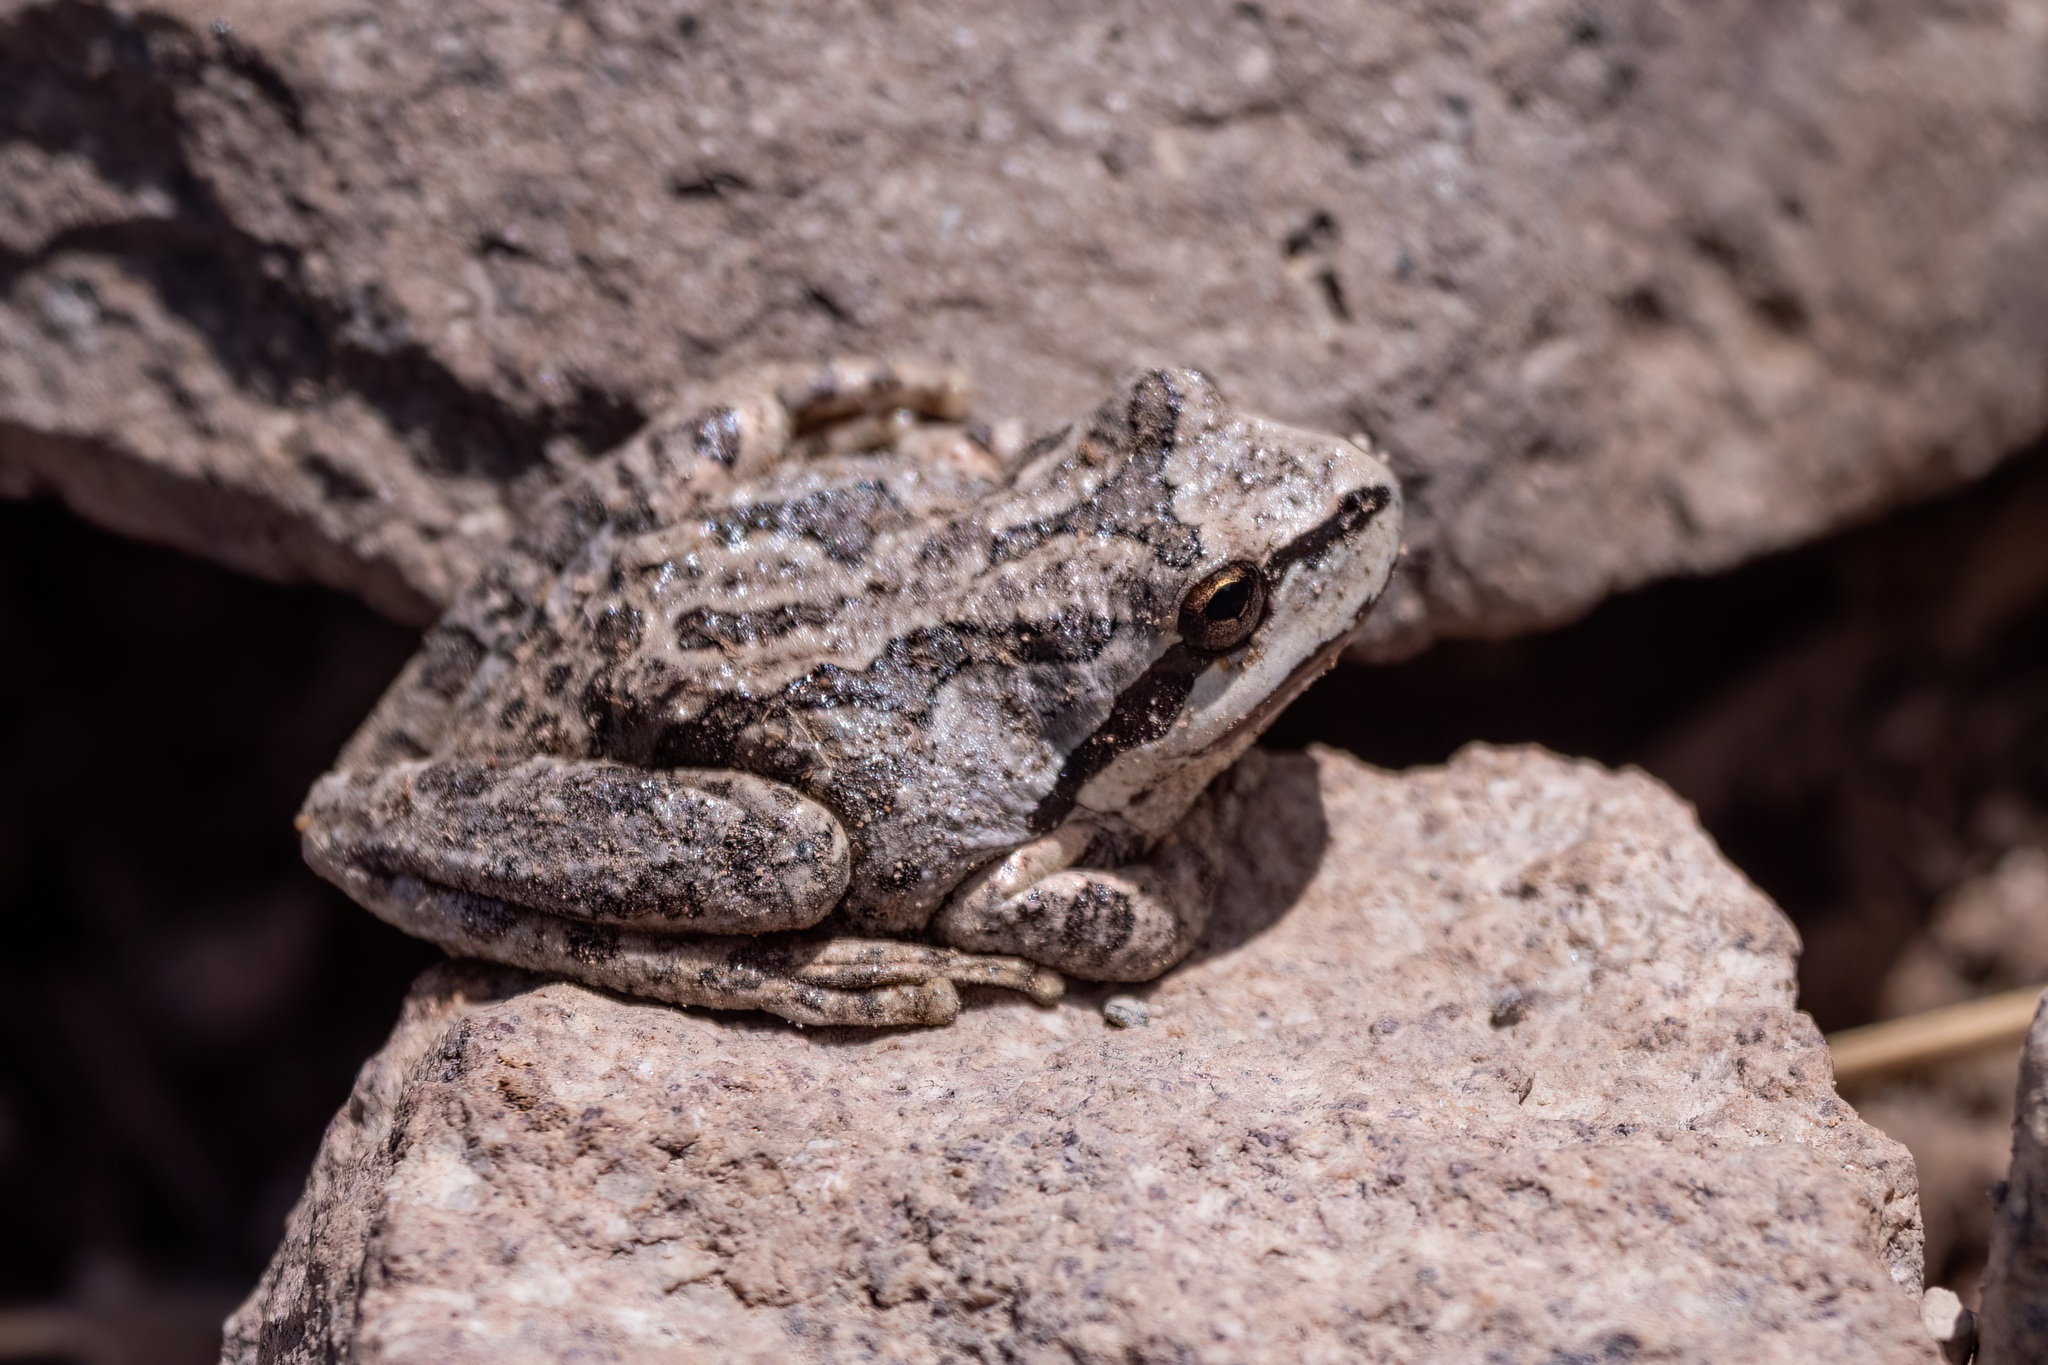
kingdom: Animalia
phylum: Chordata
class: Amphibia
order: Anura
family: Hylidae
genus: Pseudacris
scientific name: Pseudacris regilla
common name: Pacific chorus frog
